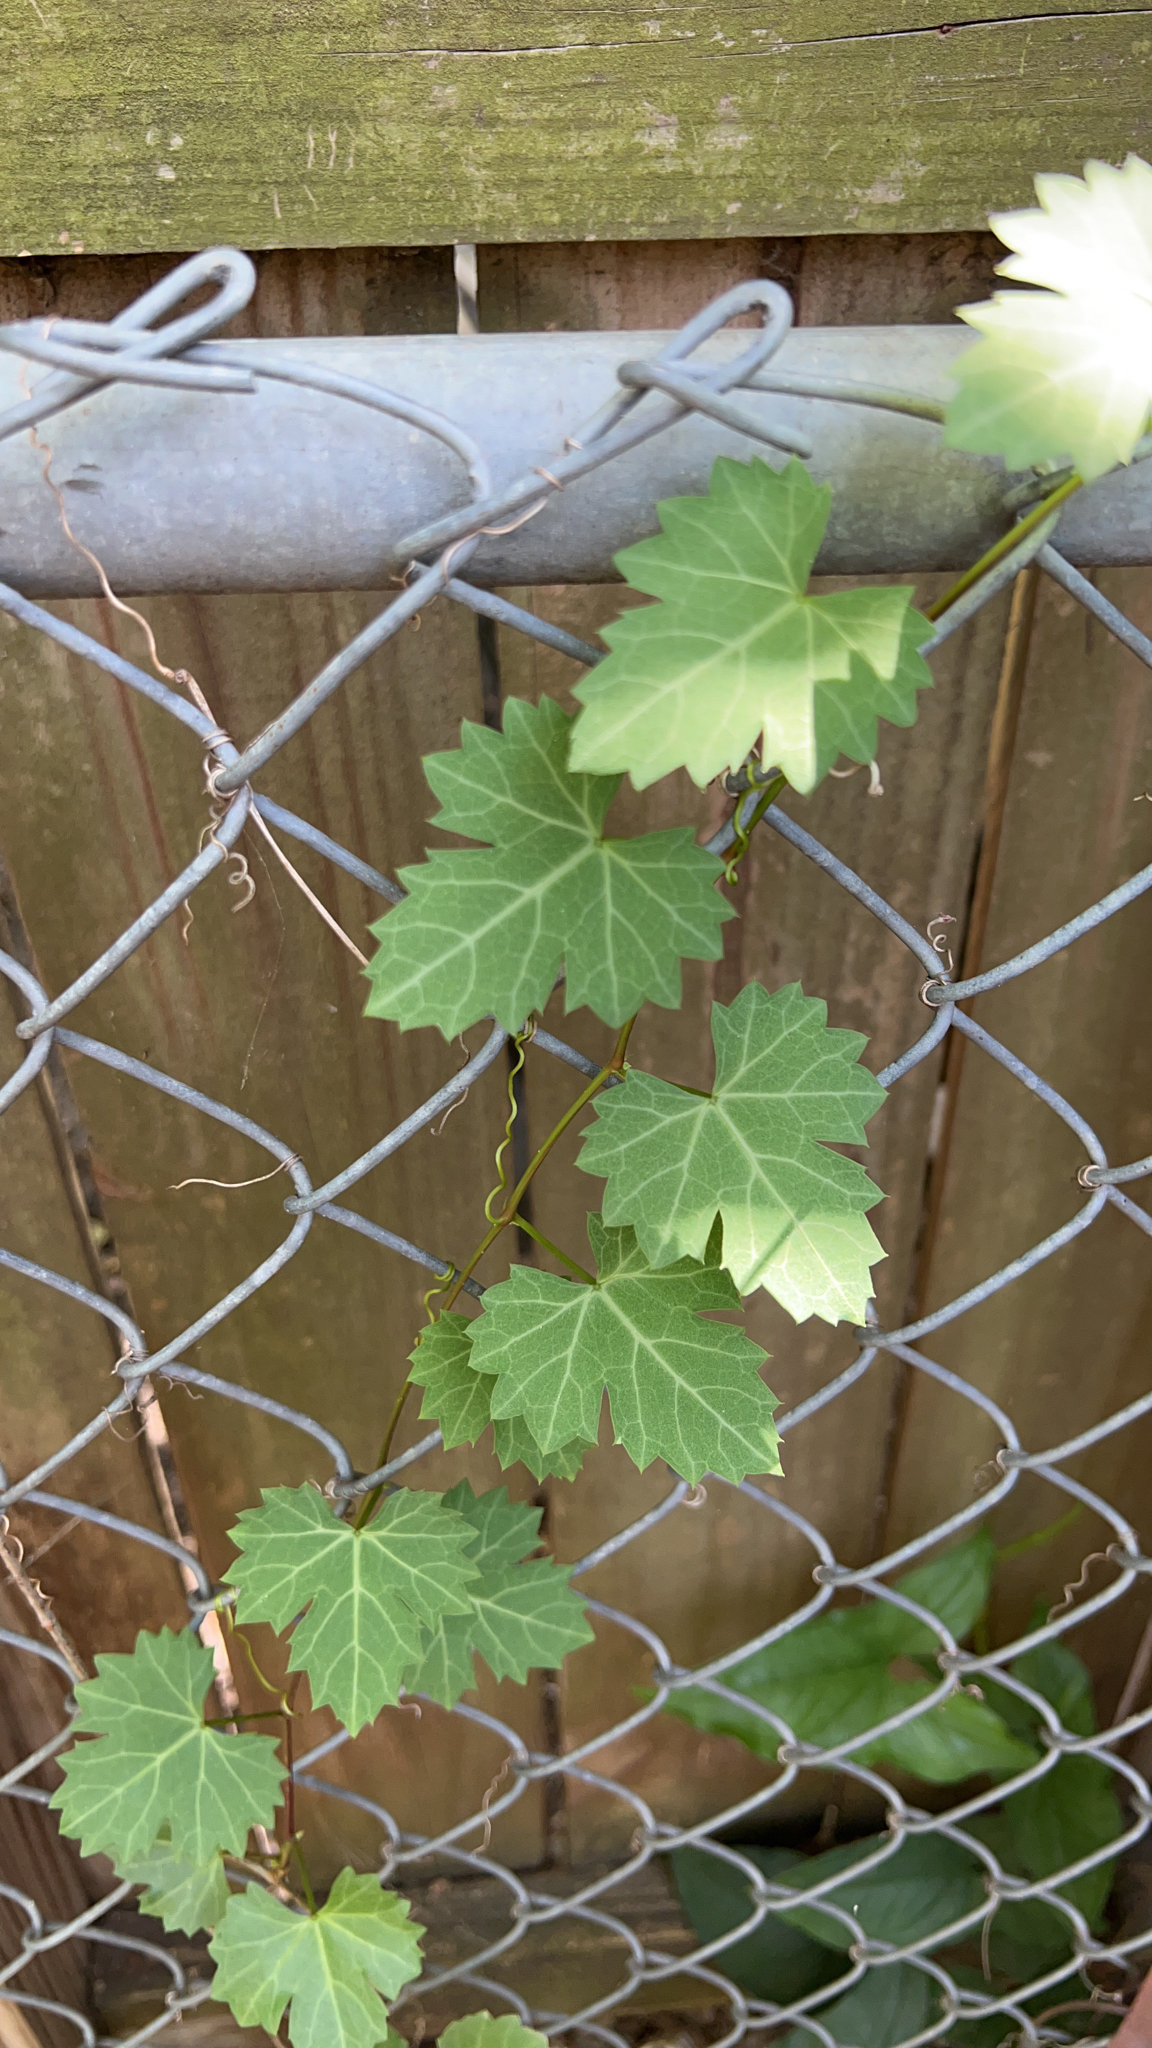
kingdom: Plantae
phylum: Tracheophyta
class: Magnoliopsida
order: Vitales
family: Vitaceae
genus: Cissus
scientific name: Cissus trifoliata
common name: Vine-sorrel
